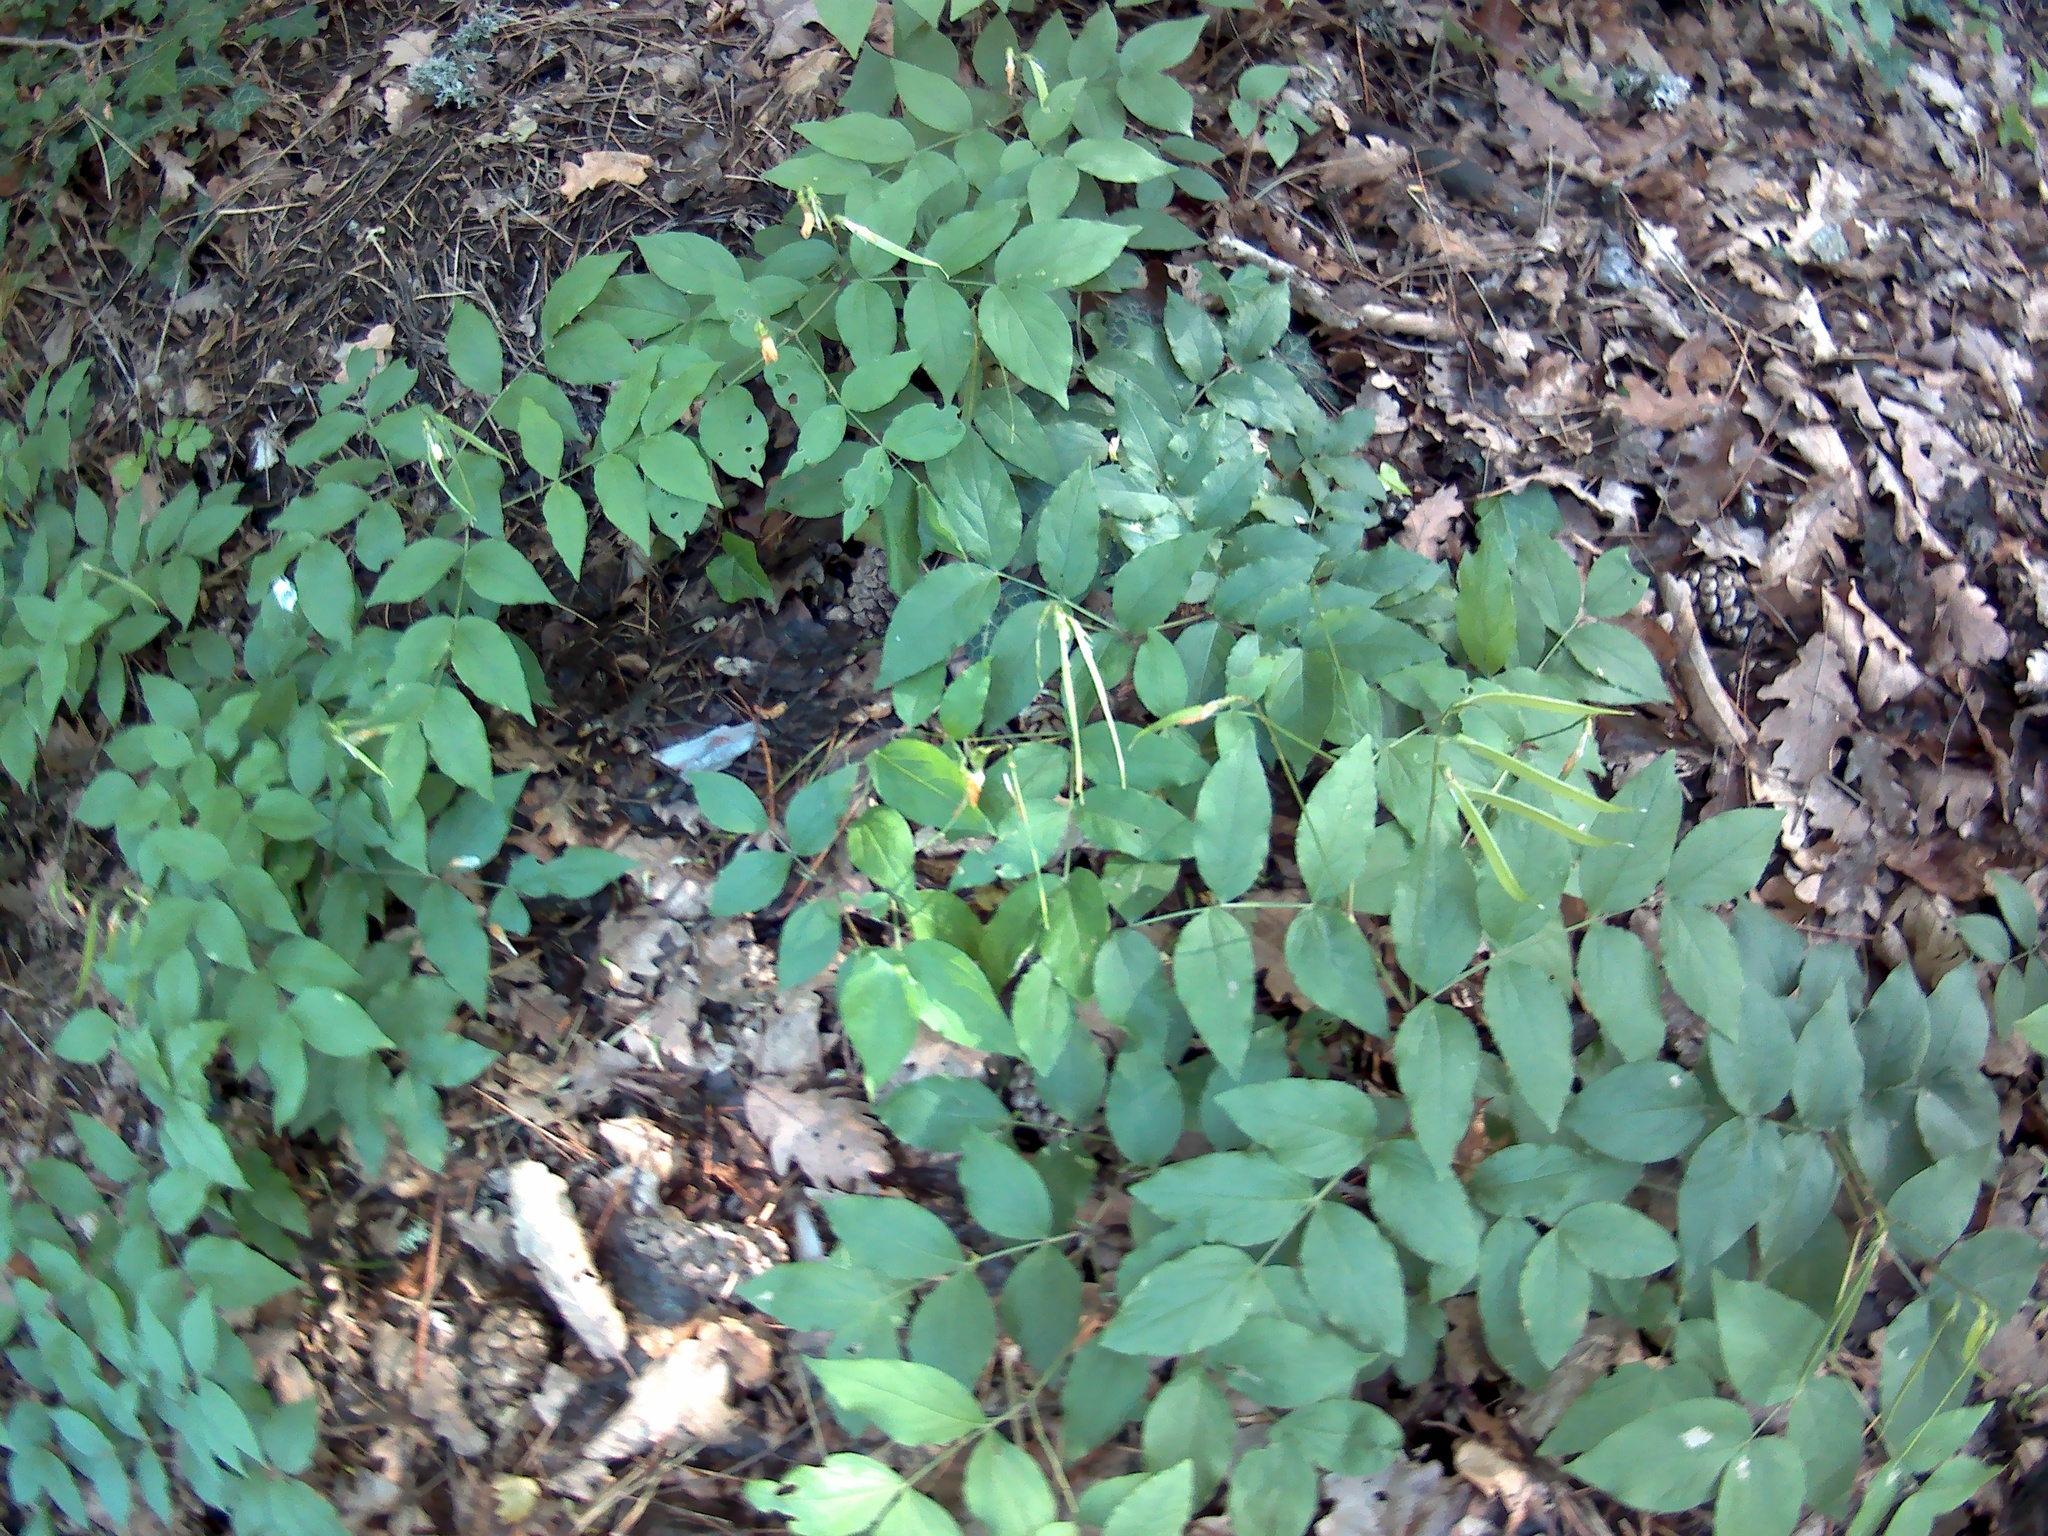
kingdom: Plantae
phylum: Tracheophyta
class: Magnoliopsida
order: Fabales
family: Fabaceae
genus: Lathyrus
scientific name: Lathyrus aureus
